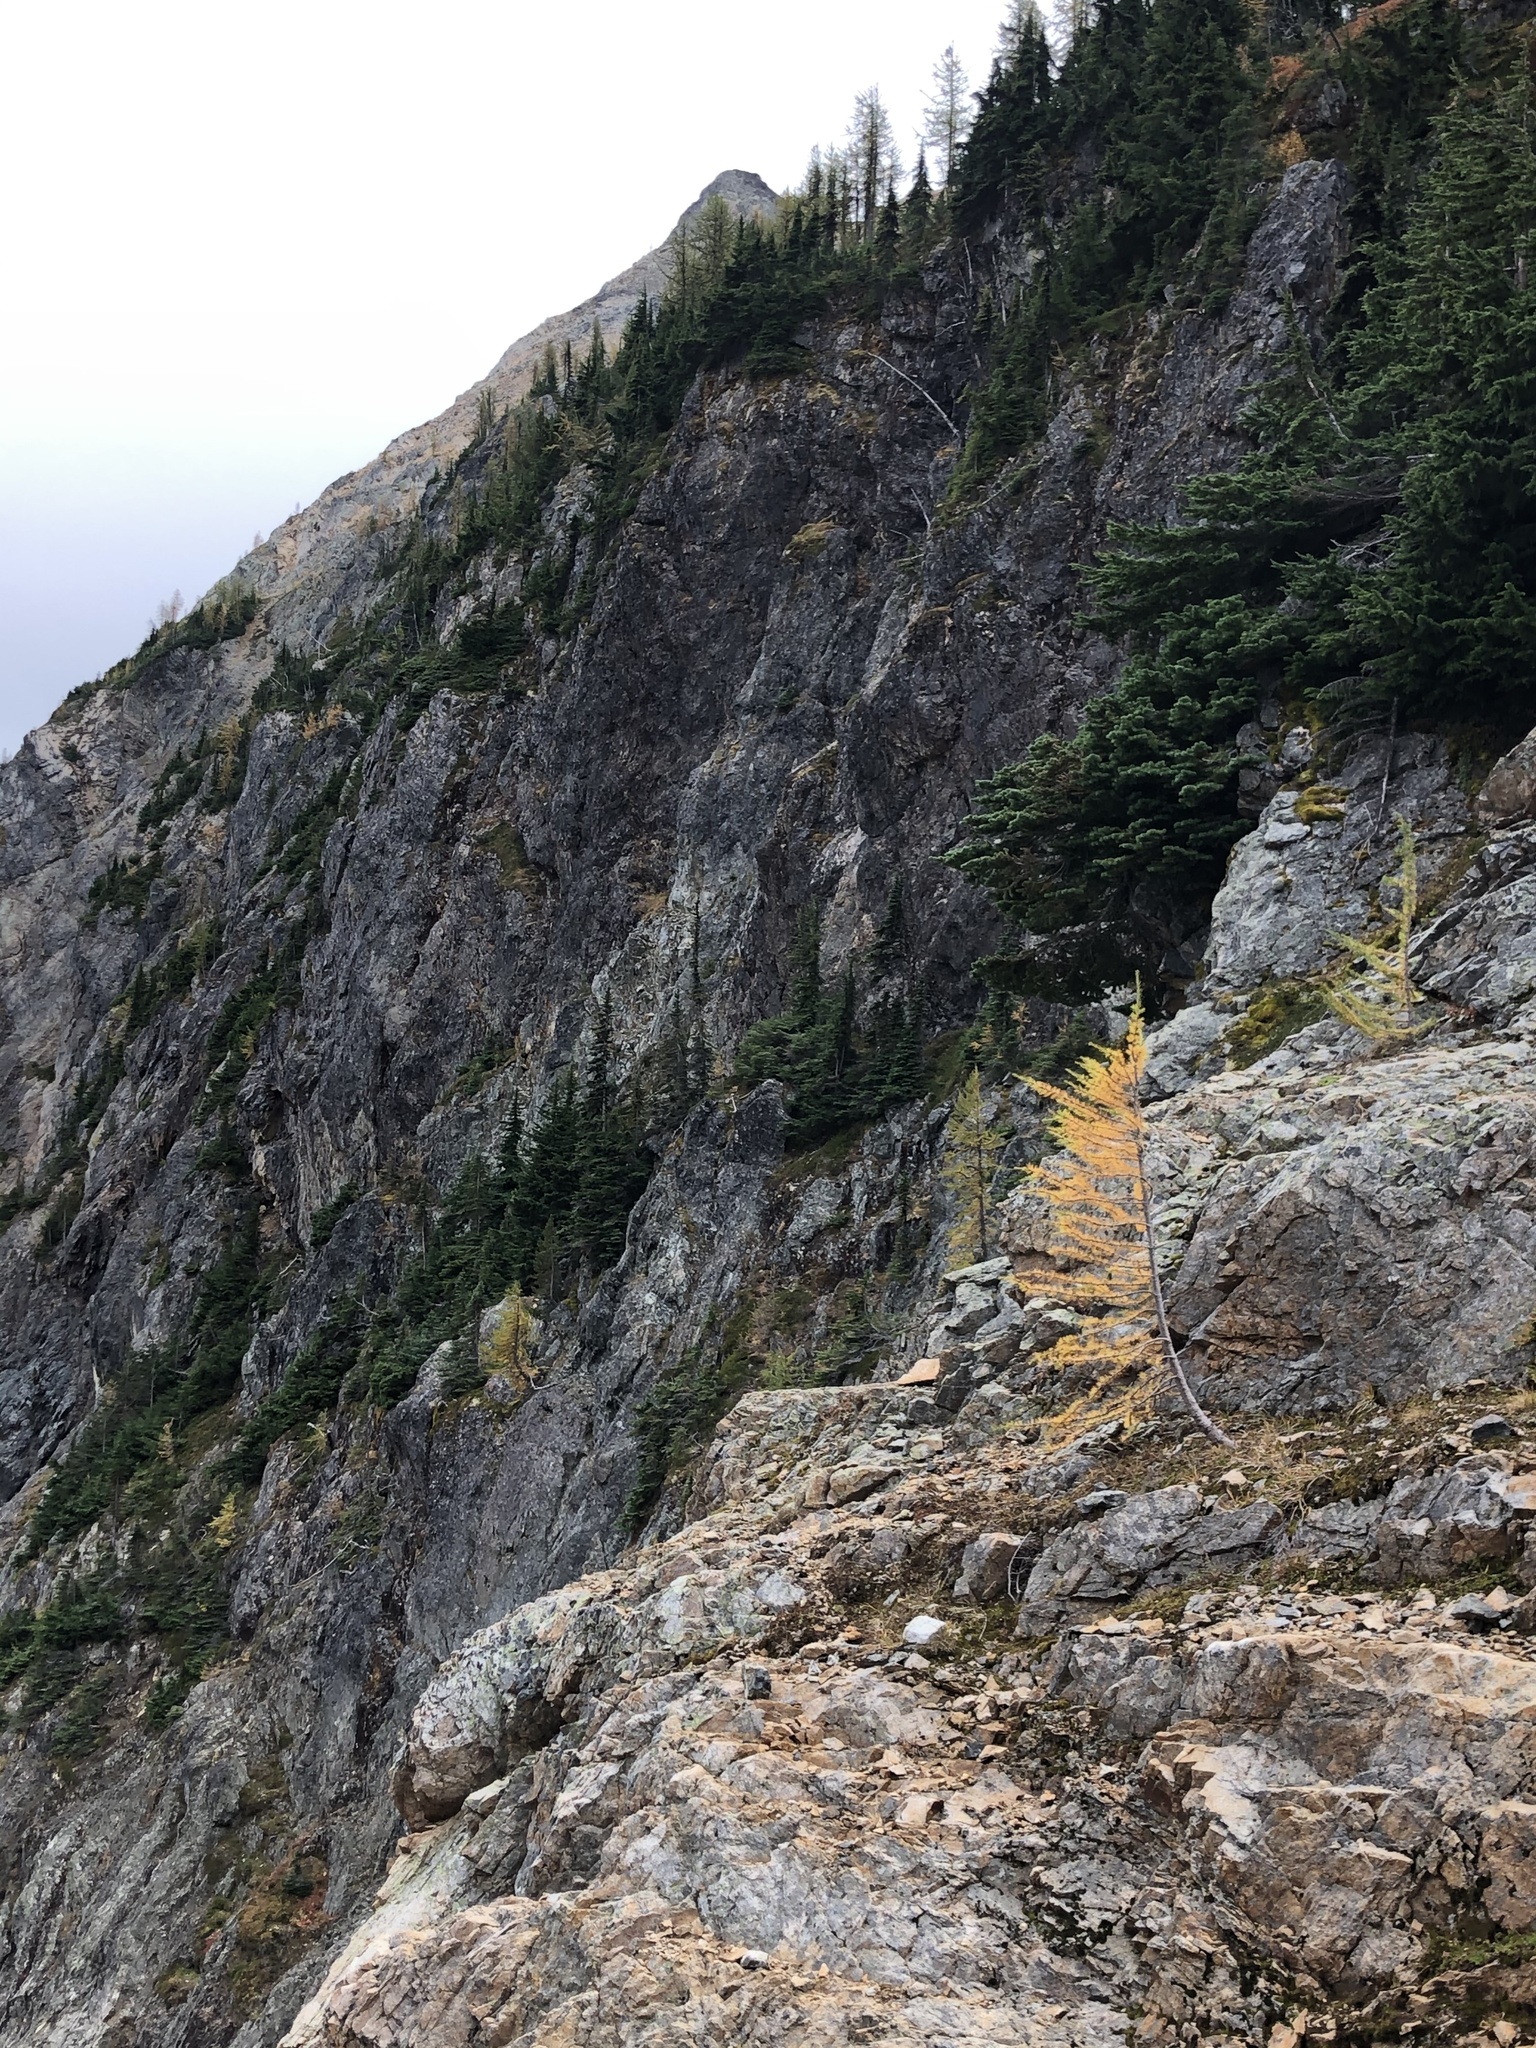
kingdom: Plantae
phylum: Tracheophyta
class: Pinopsida
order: Pinales
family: Pinaceae
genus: Larix
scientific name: Larix lyallii
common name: Alpine larch
